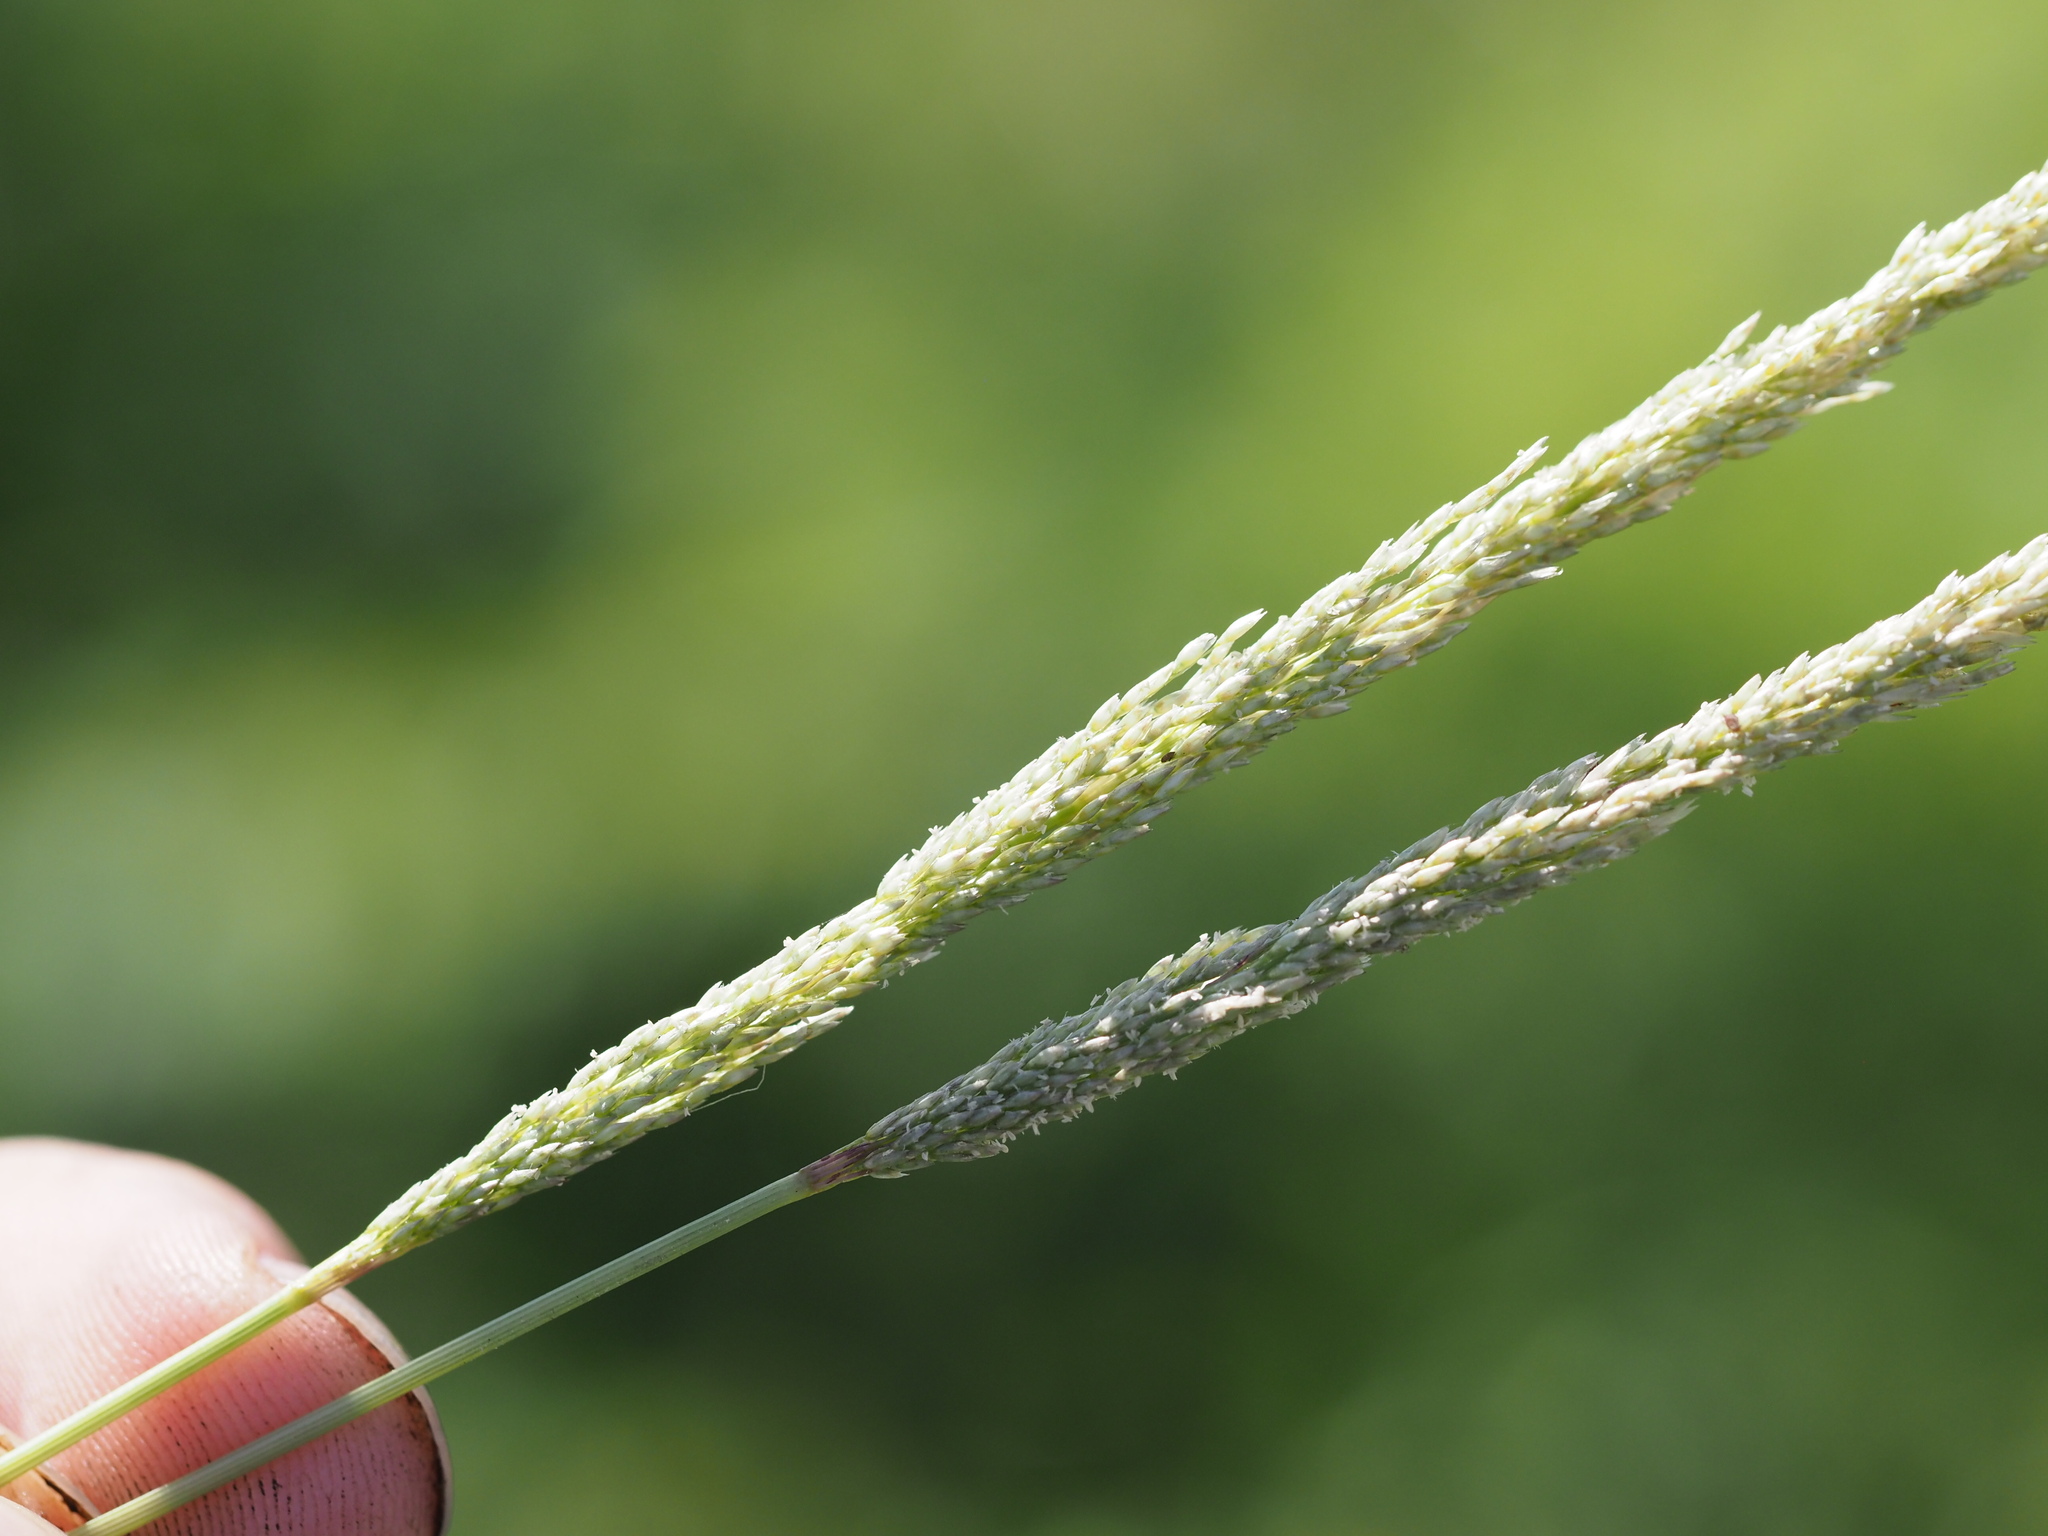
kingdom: Plantae
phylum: Tracheophyta
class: Liliopsida
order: Poales
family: Poaceae
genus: Sporobolus
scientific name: Sporobolus pyramidatus
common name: Whorled dropseed
